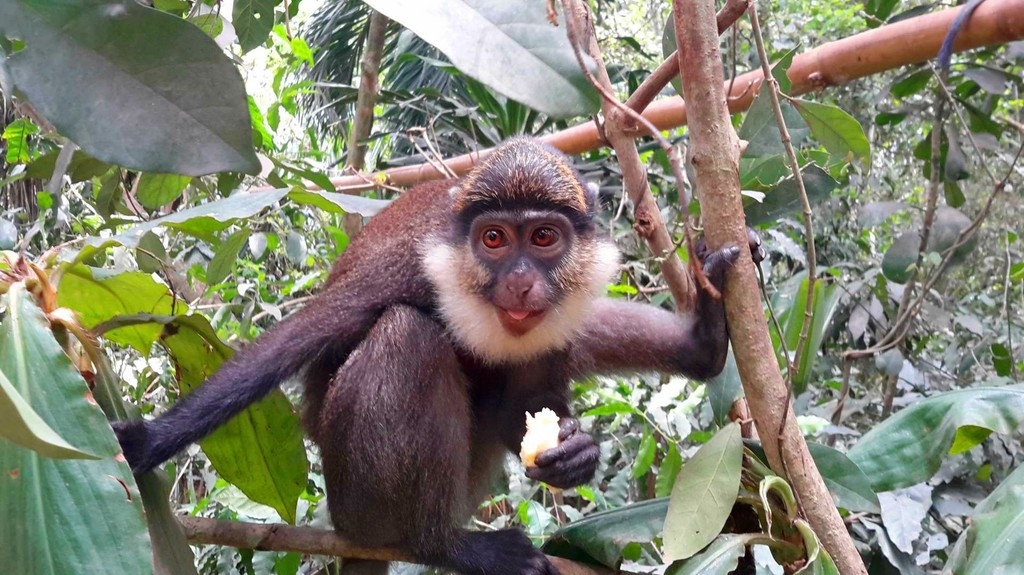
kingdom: Animalia
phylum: Chordata
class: Mammalia
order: Primates
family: Cercopithecidae
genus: Cercopithecus
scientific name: Cercopithecus erythrogaster
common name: White-throated guenon
